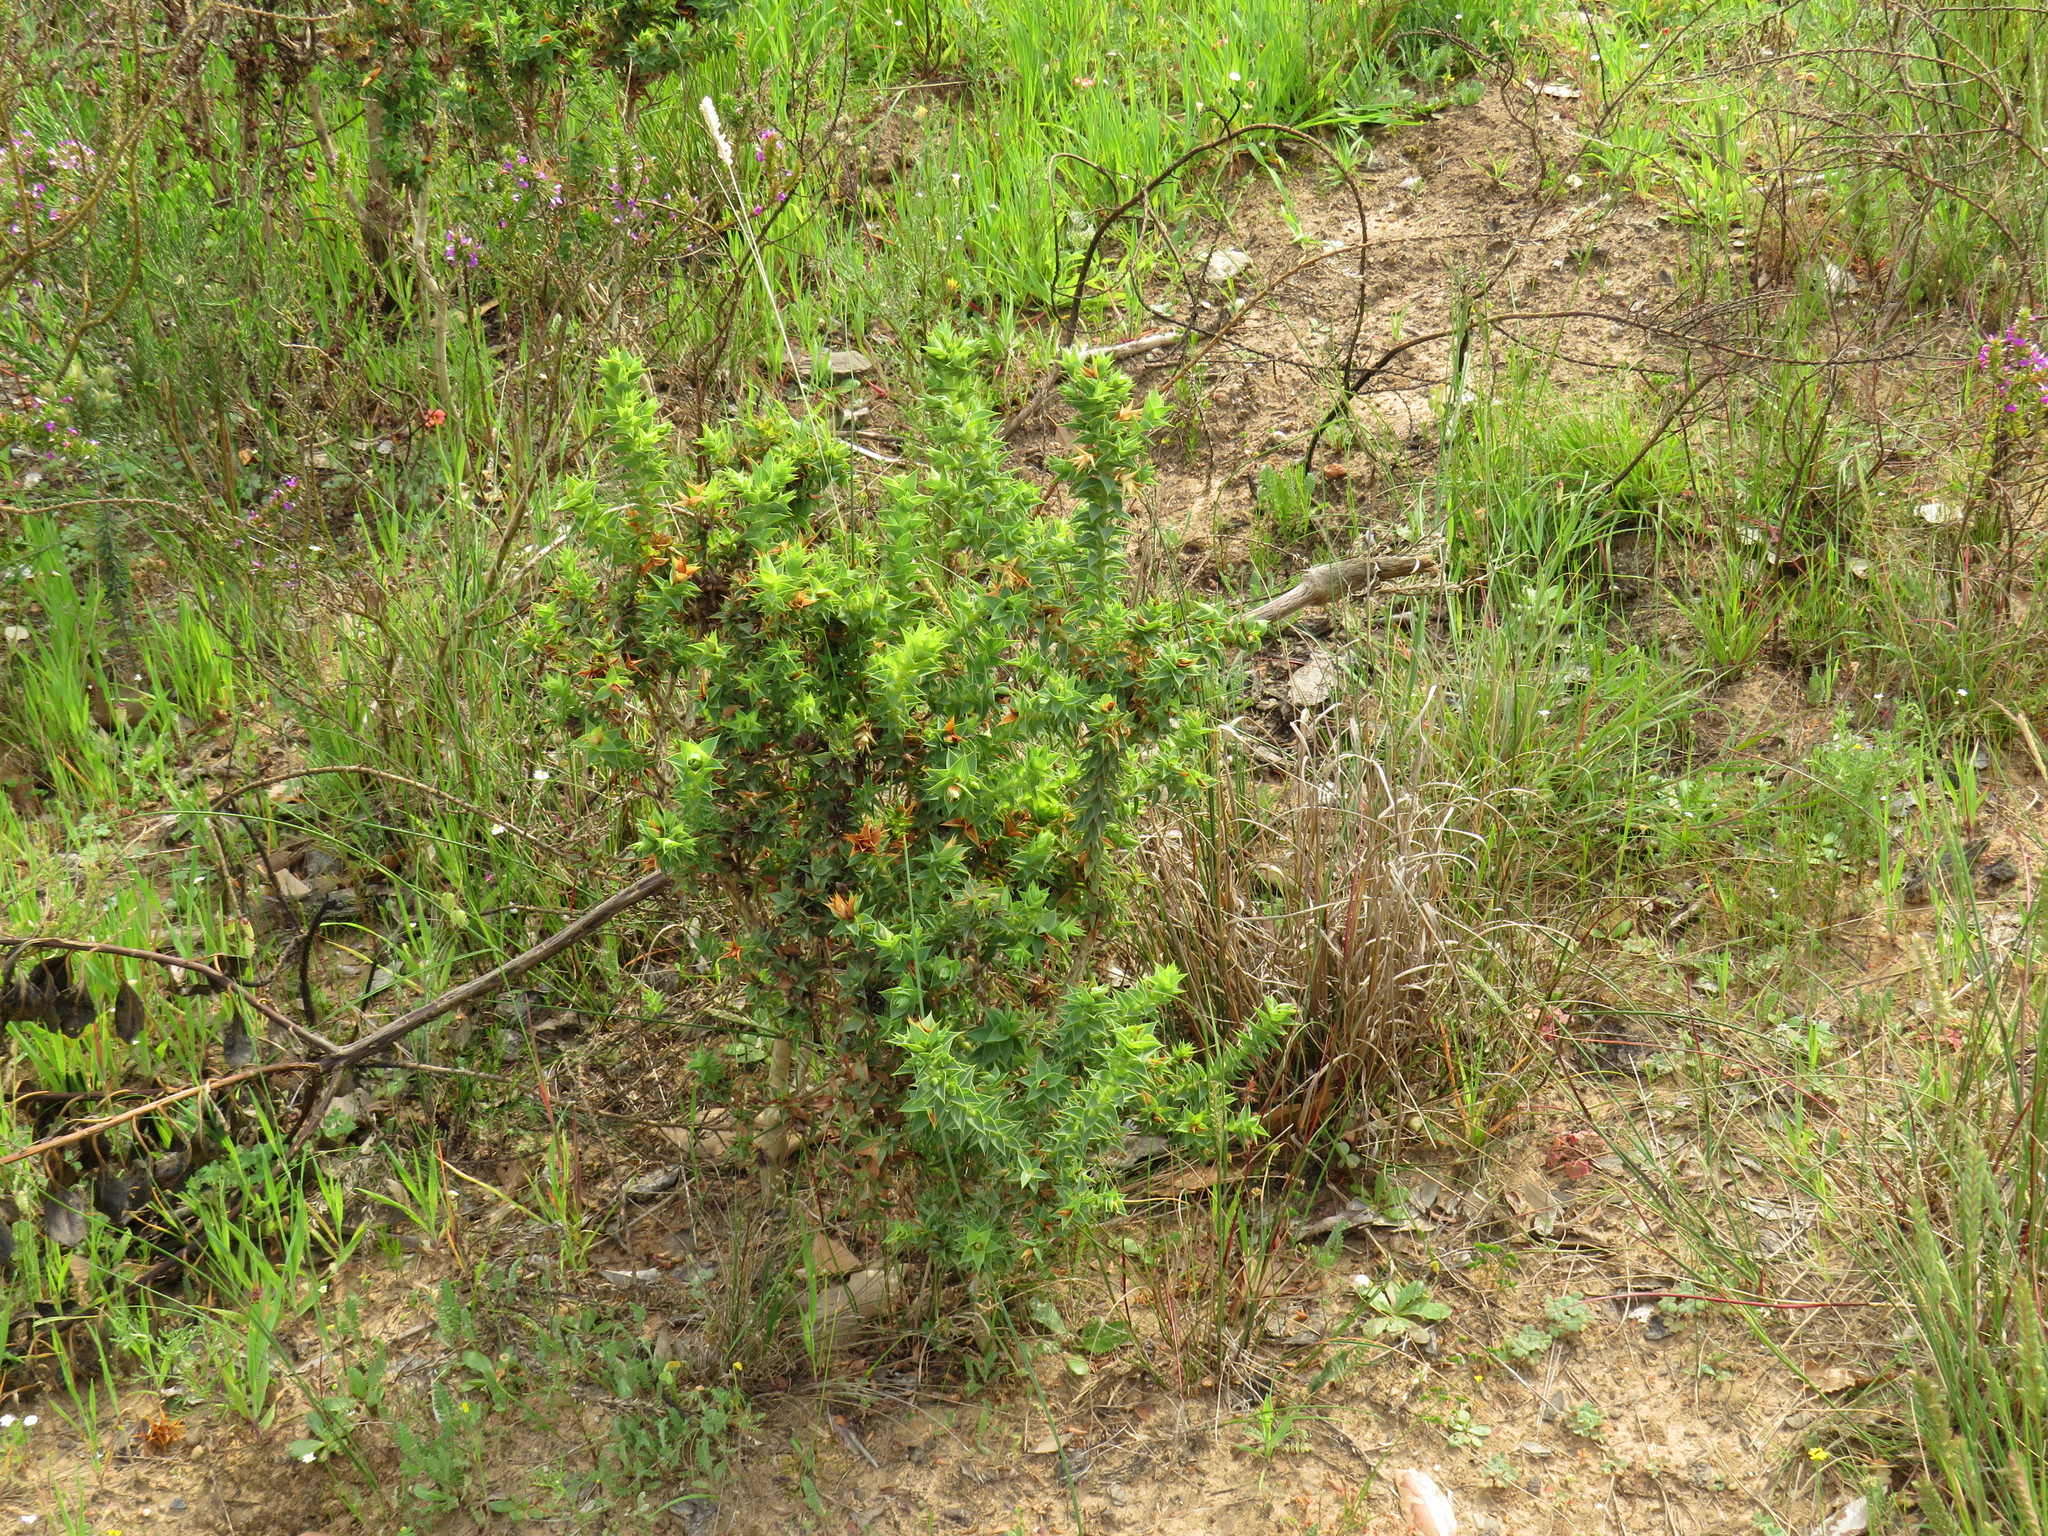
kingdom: Plantae
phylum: Tracheophyta
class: Magnoliopsida
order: Fabales
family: Fabaceae
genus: Aspalathus
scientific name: Aspalathus cordata
